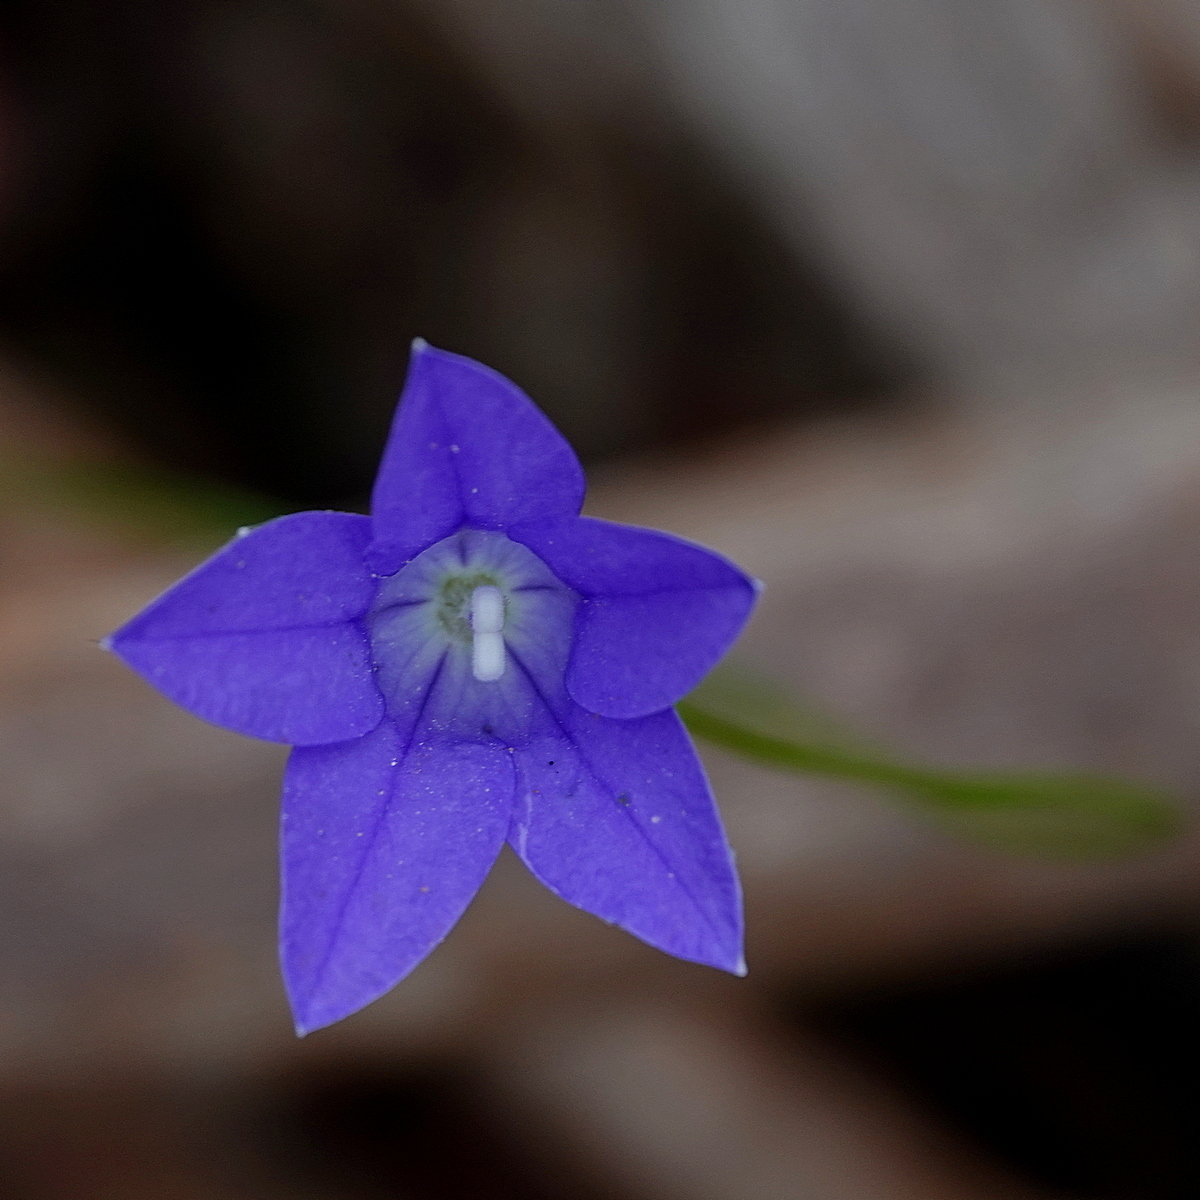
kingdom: Plantae
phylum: Tracheophyta
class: Magnoliopsida
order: Asterales
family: Campanulaceae
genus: Wahlenbergia
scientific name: Wahlenbergia gloriosa
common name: Royal bluebell
